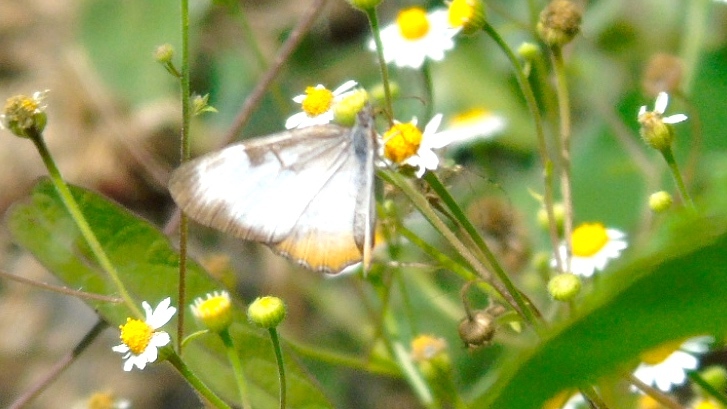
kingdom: Animalia
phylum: Arthropoda
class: Insecta
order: Lepidoptera
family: Nymphalidae
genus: Mestra
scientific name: Mestra amymone
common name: Common mestra
